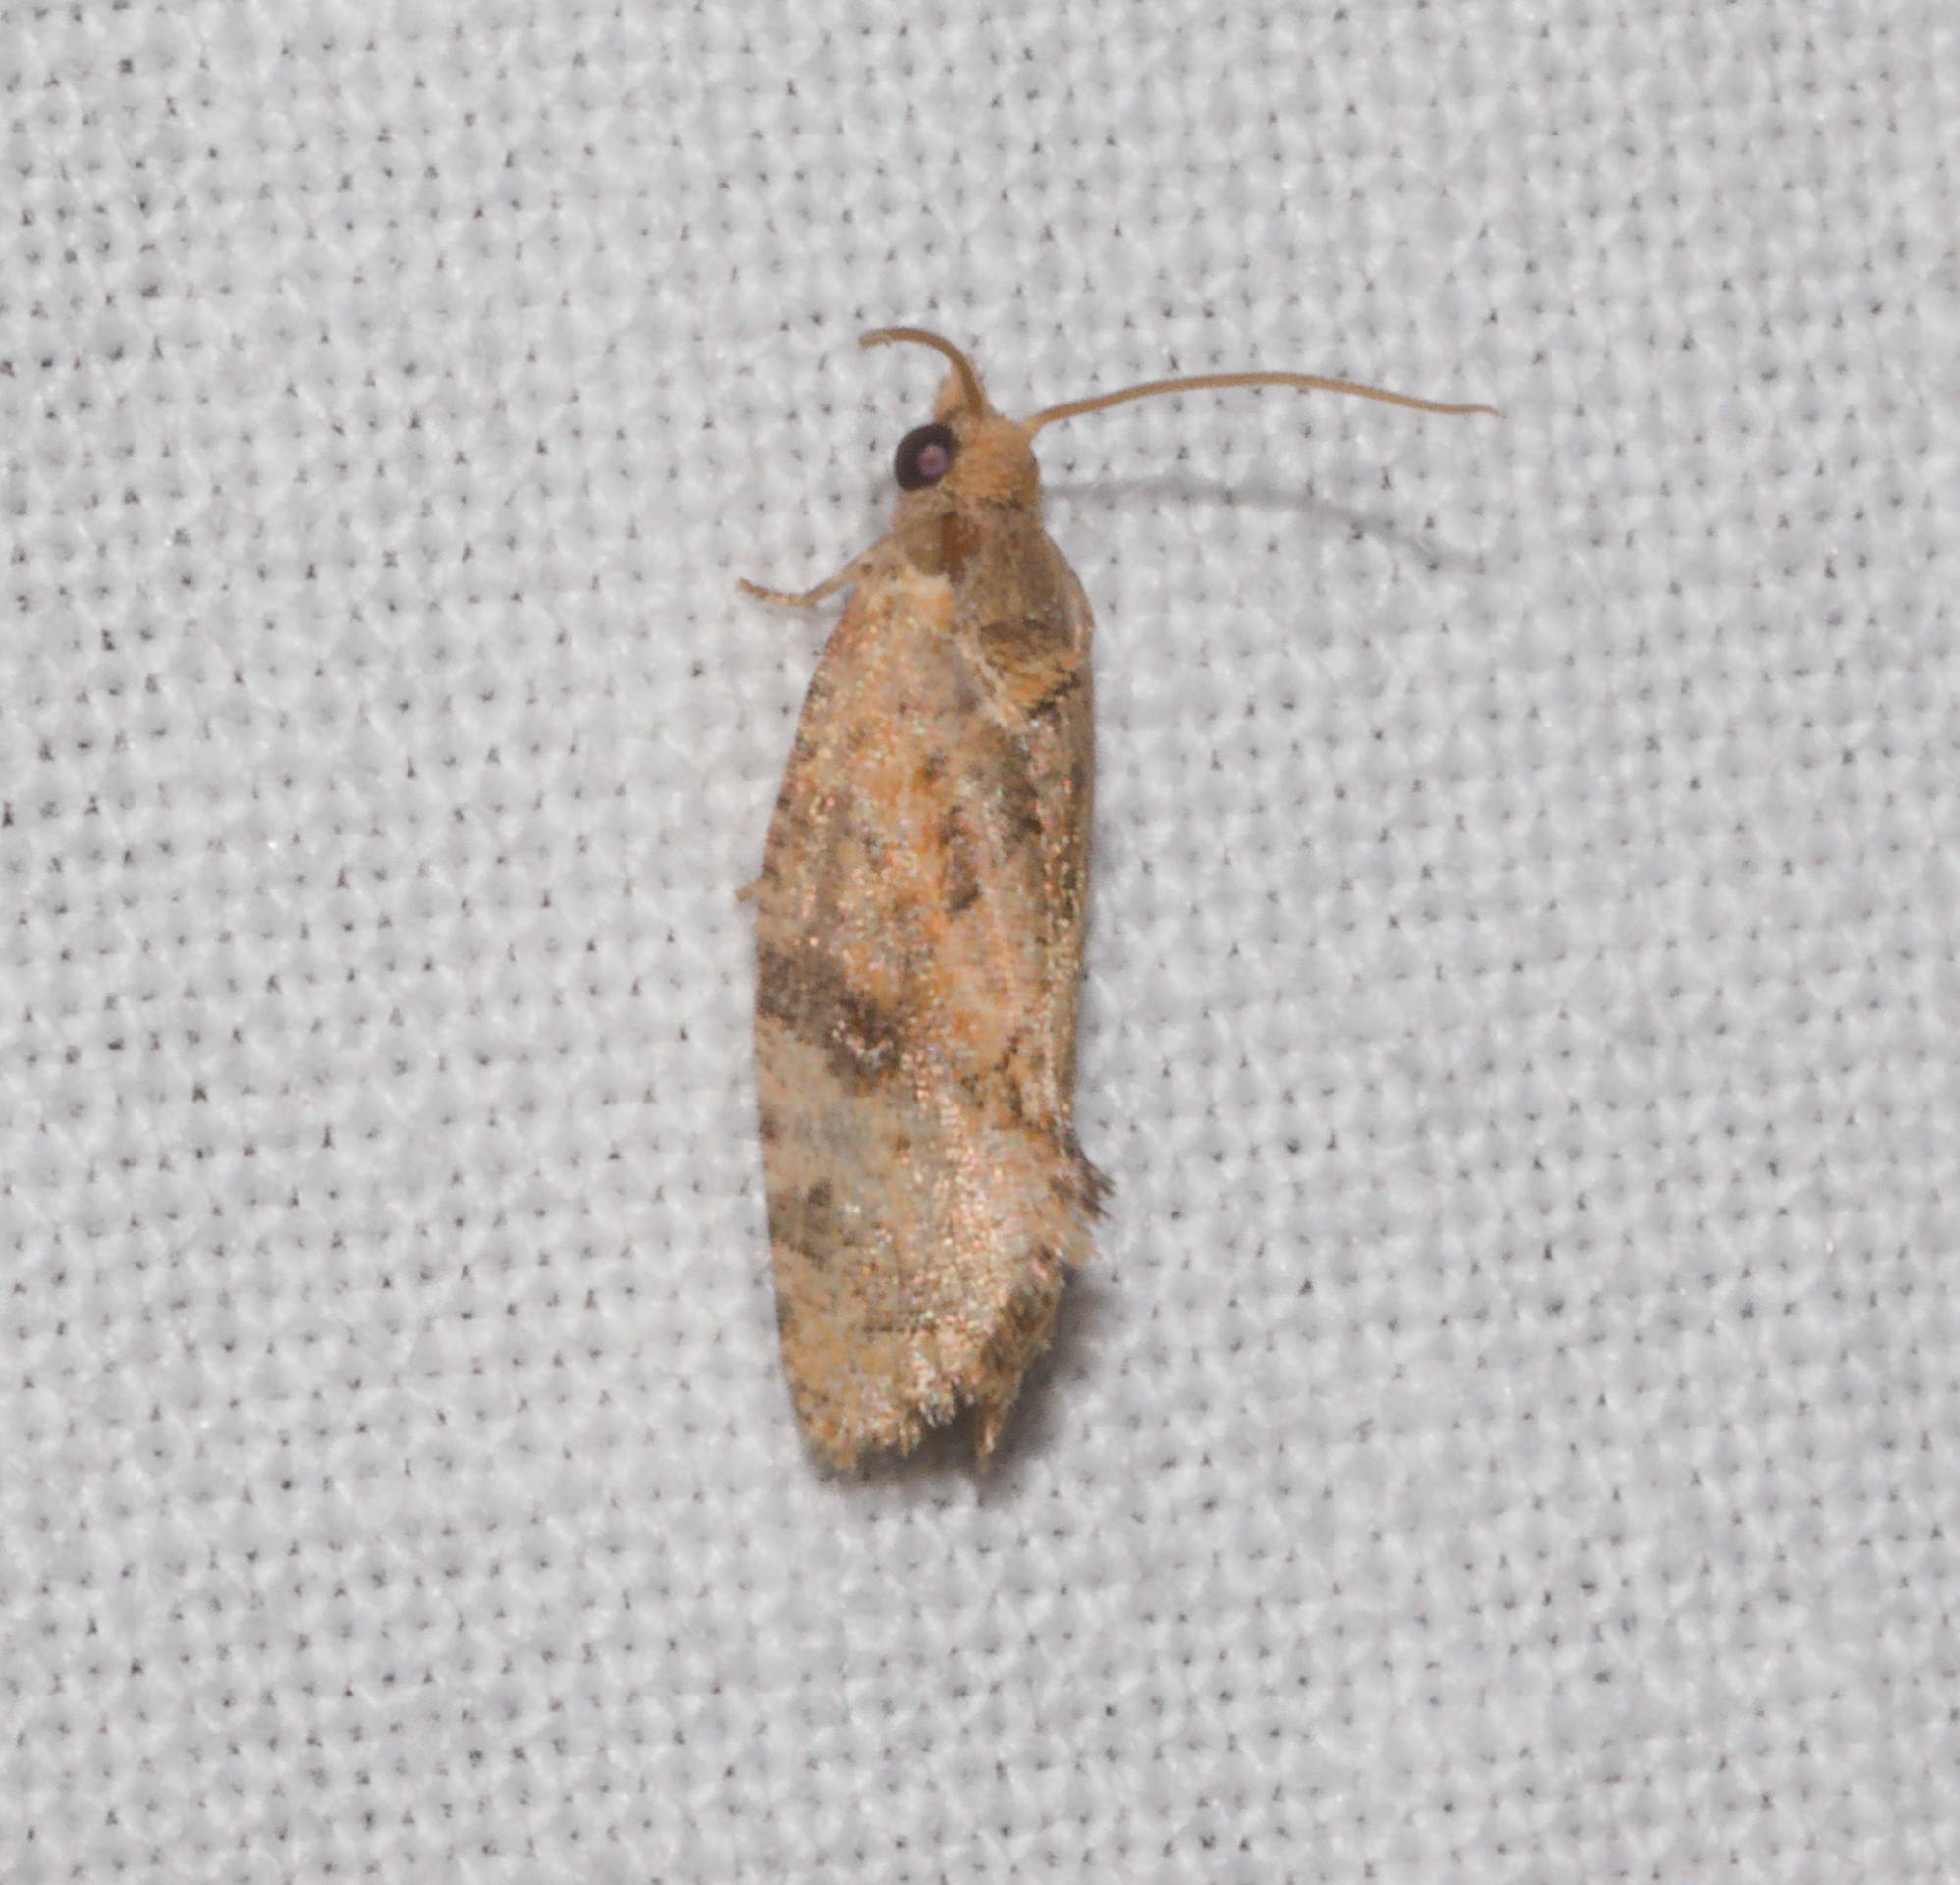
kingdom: Animalia
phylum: Arthropoda
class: Insecta
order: Lepidoptera
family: Tortricidae
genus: Cryptophlebia
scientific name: Cryptophlebia illepida
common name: Moth
